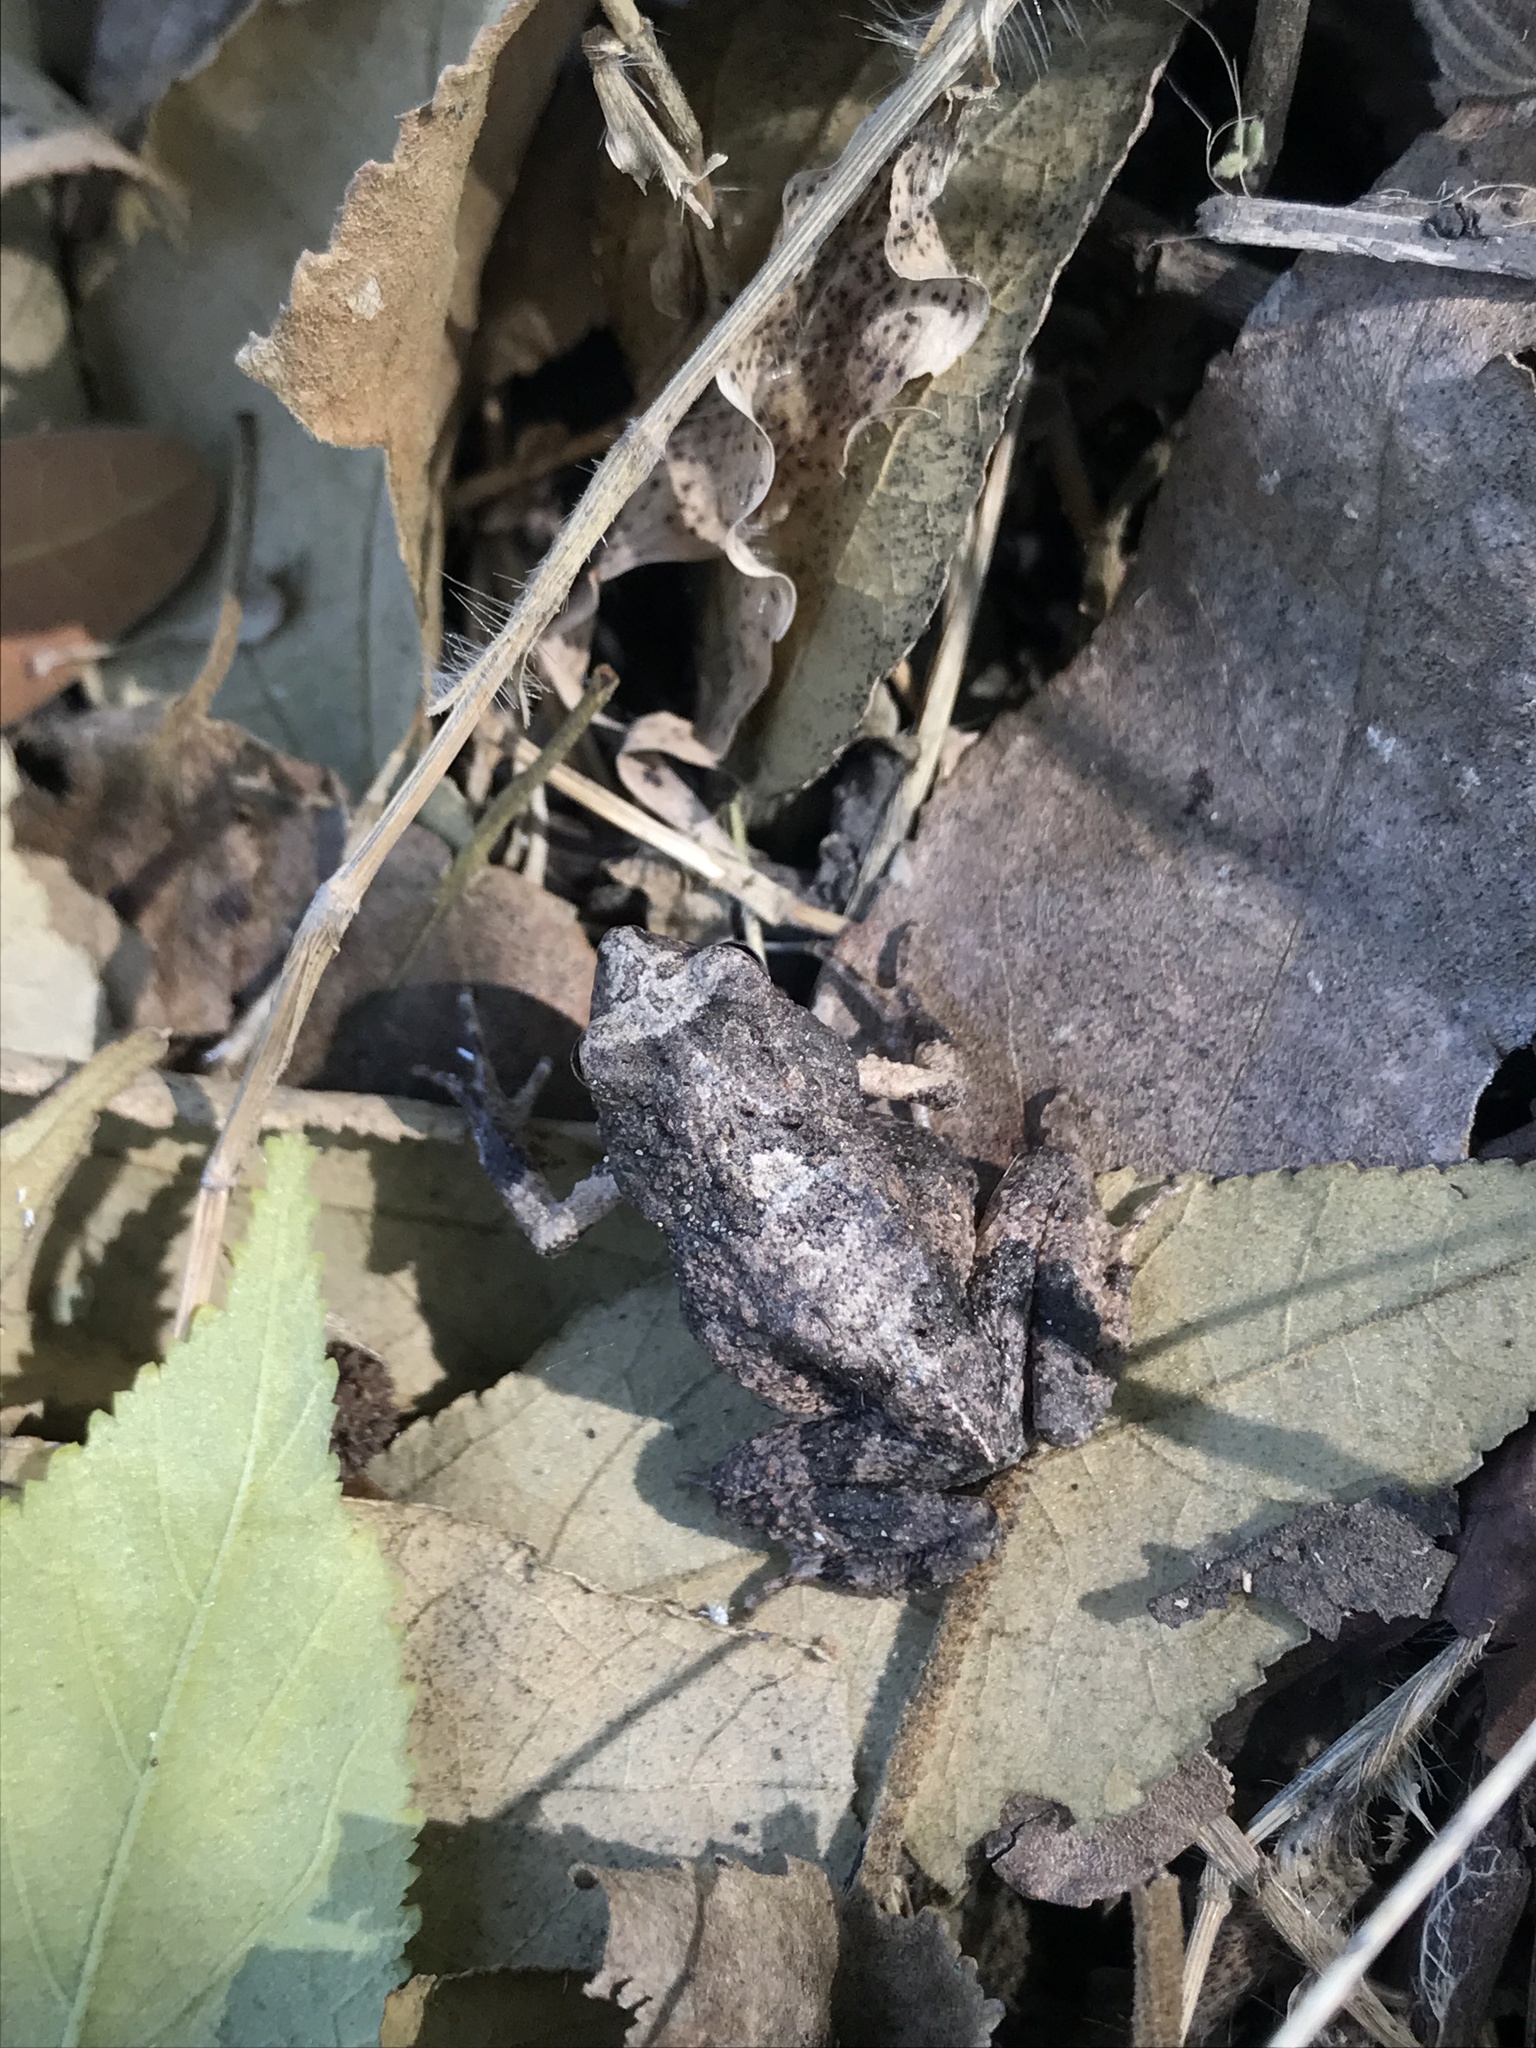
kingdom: Animalia
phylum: Chordata
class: Amphibia
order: Anura
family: Leptodactylidae
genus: Engystomops
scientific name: Engystomops pustulosus
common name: Tungara frog
